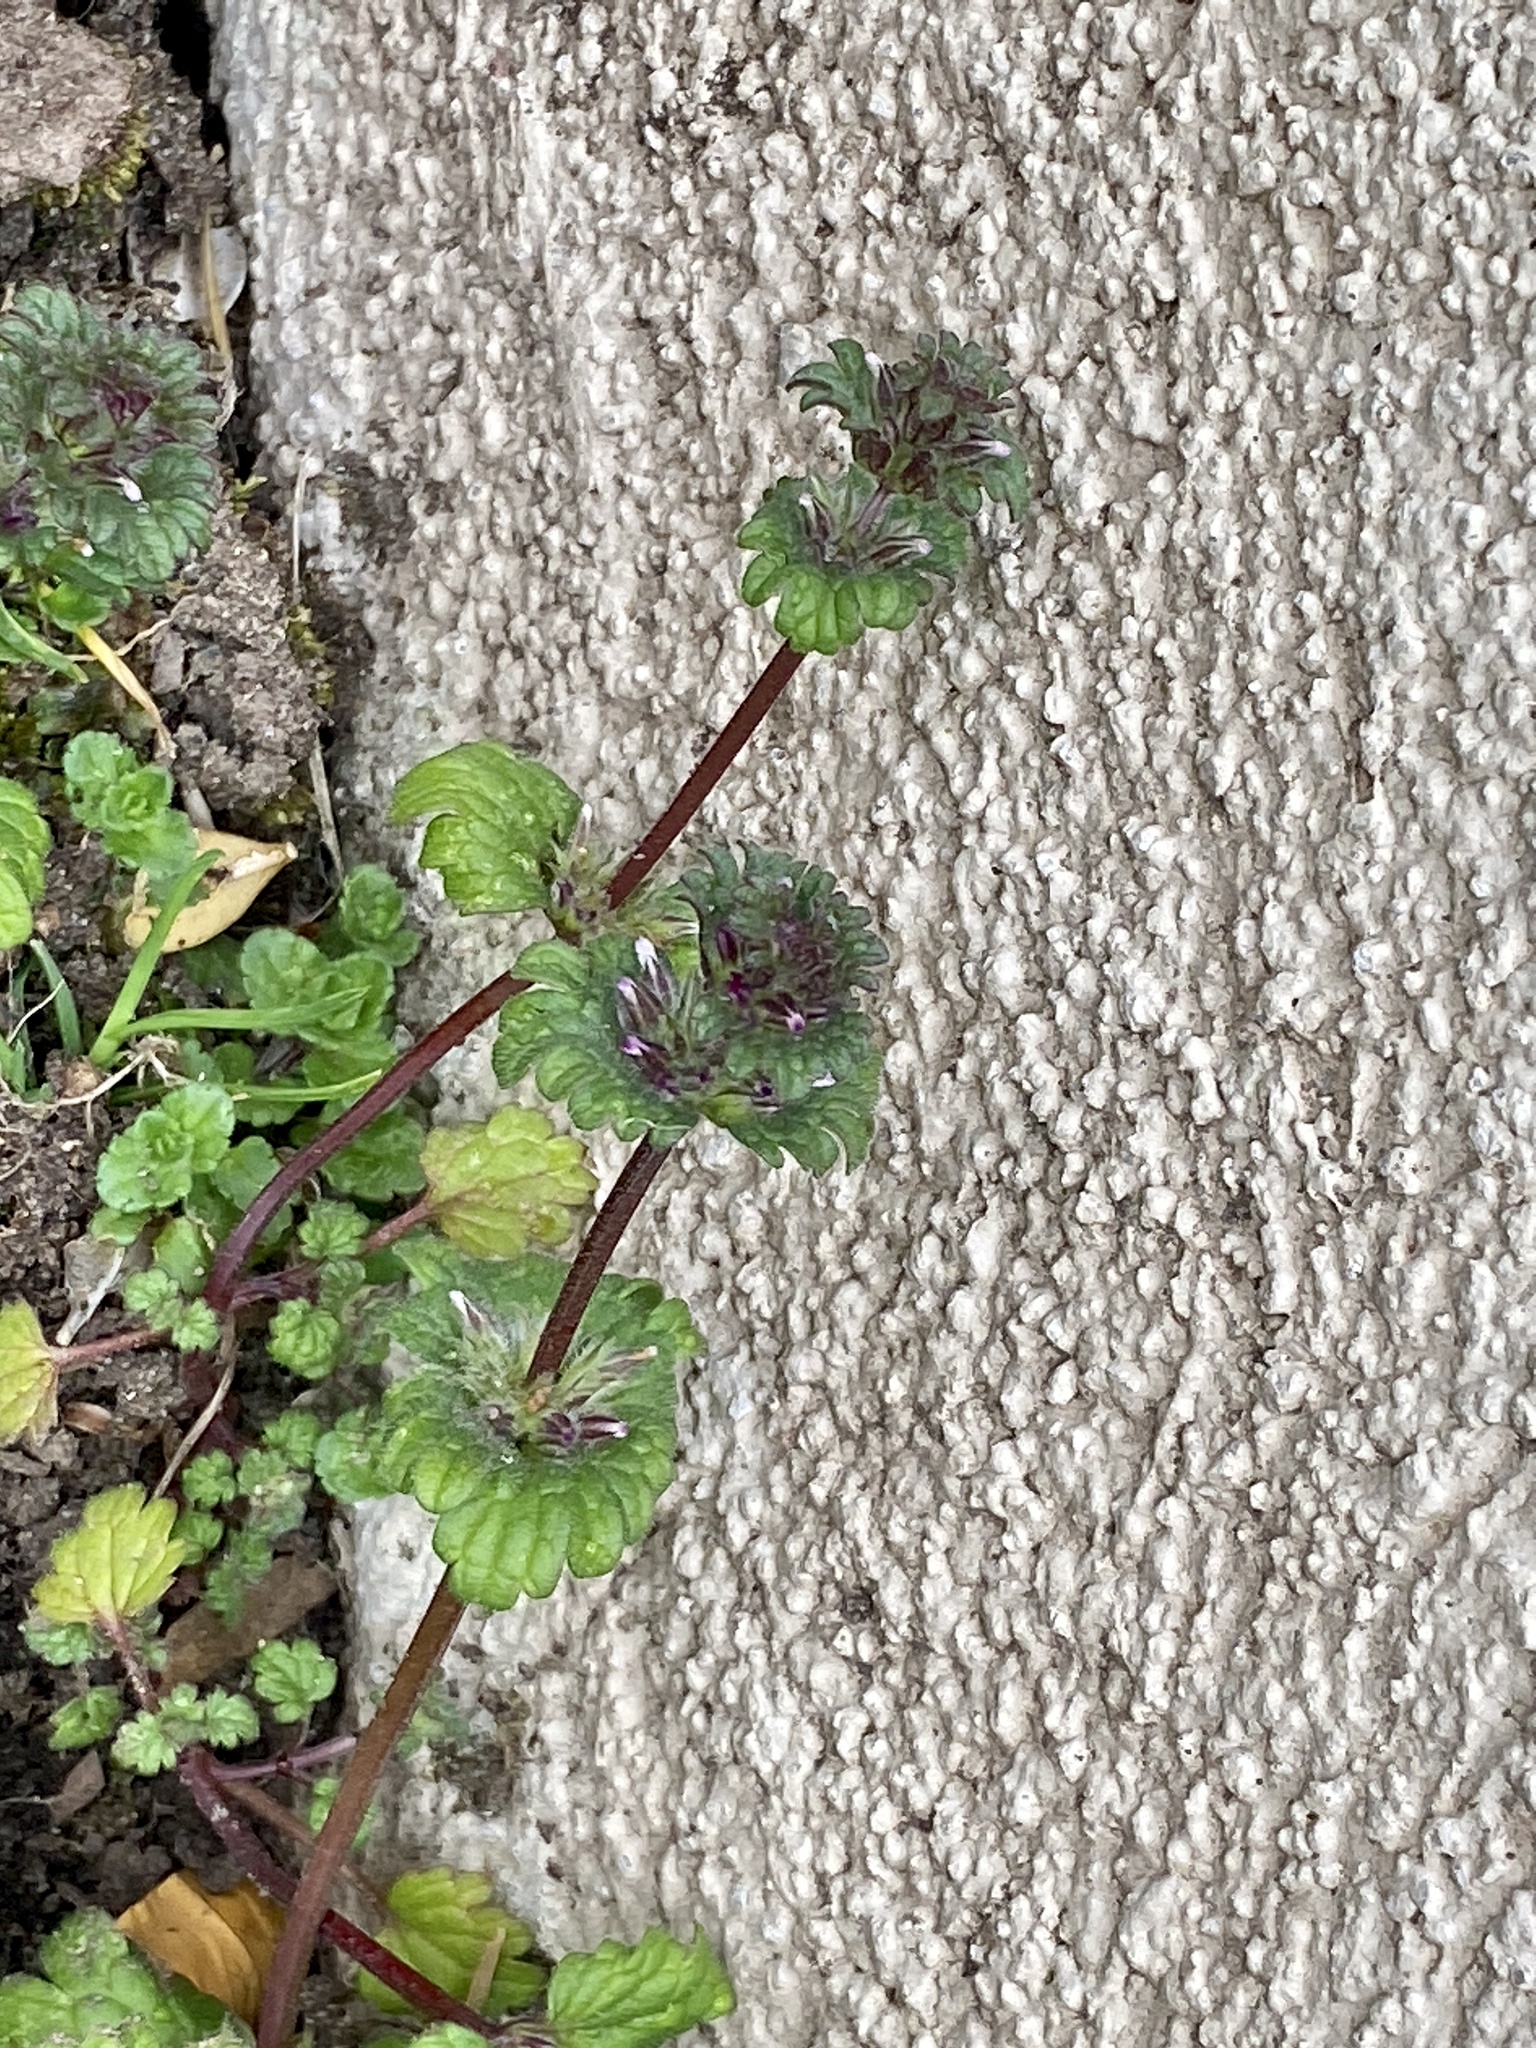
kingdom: Plantae
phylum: Tracheophyta
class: Magnoliopsida
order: Lamiales
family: Lamiaceae
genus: Lamium
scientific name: Lamium amplexicaule
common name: Henbit dead-nettle
